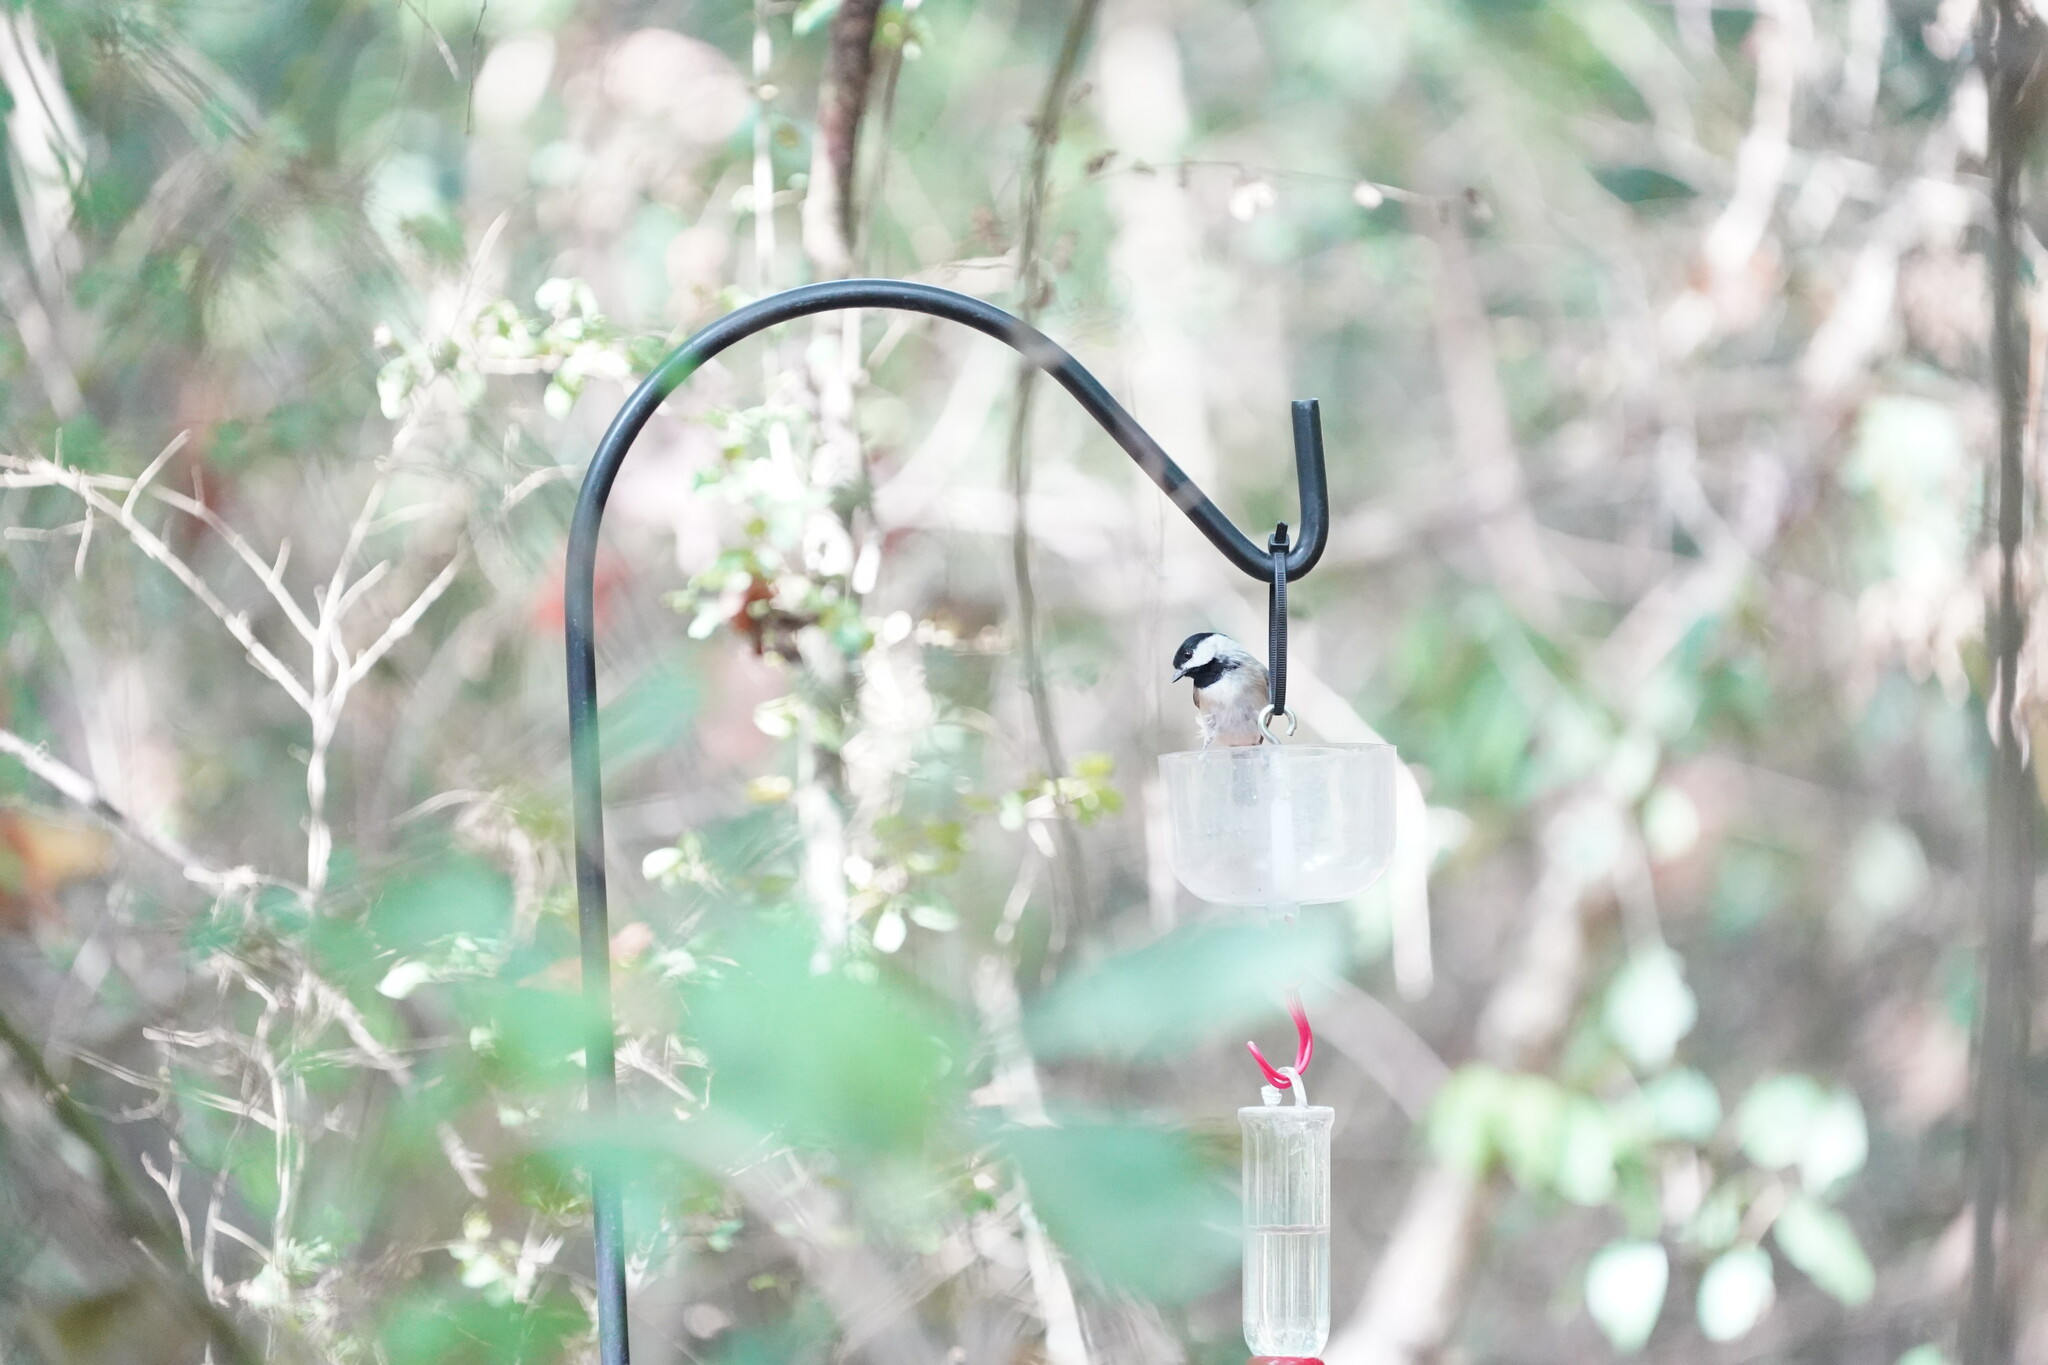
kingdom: Animalia
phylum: Chordata
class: Aves
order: Passeriformes
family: Paridae
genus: Poecile
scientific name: Poecile carolinensis
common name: Carolina chickadee
